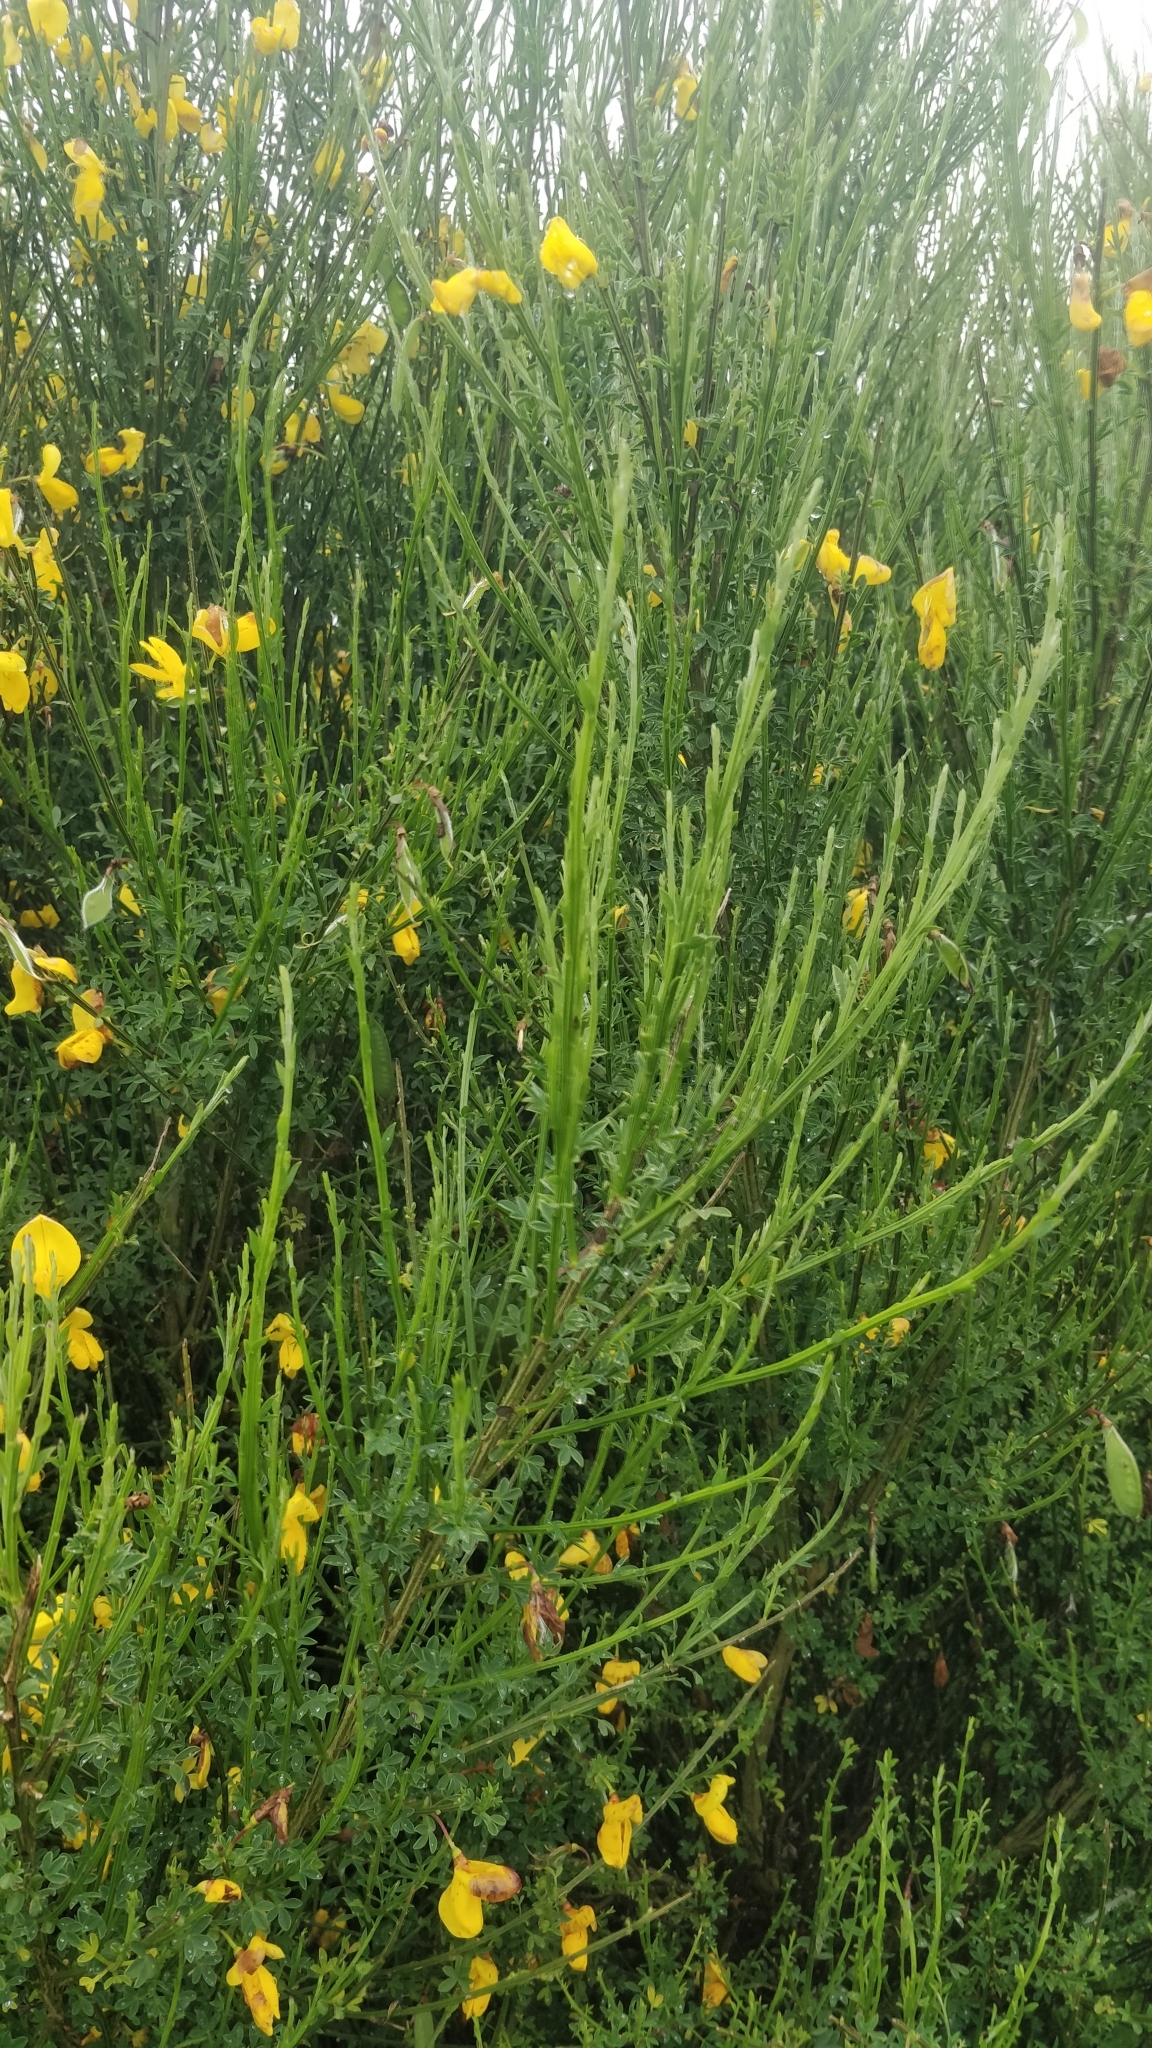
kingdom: Plantae
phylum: Tracheophyta
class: Magnoliopsida
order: Fabales
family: Fabaceae
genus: Cytisus
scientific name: Cytisus scoparius
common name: Scotch broom
